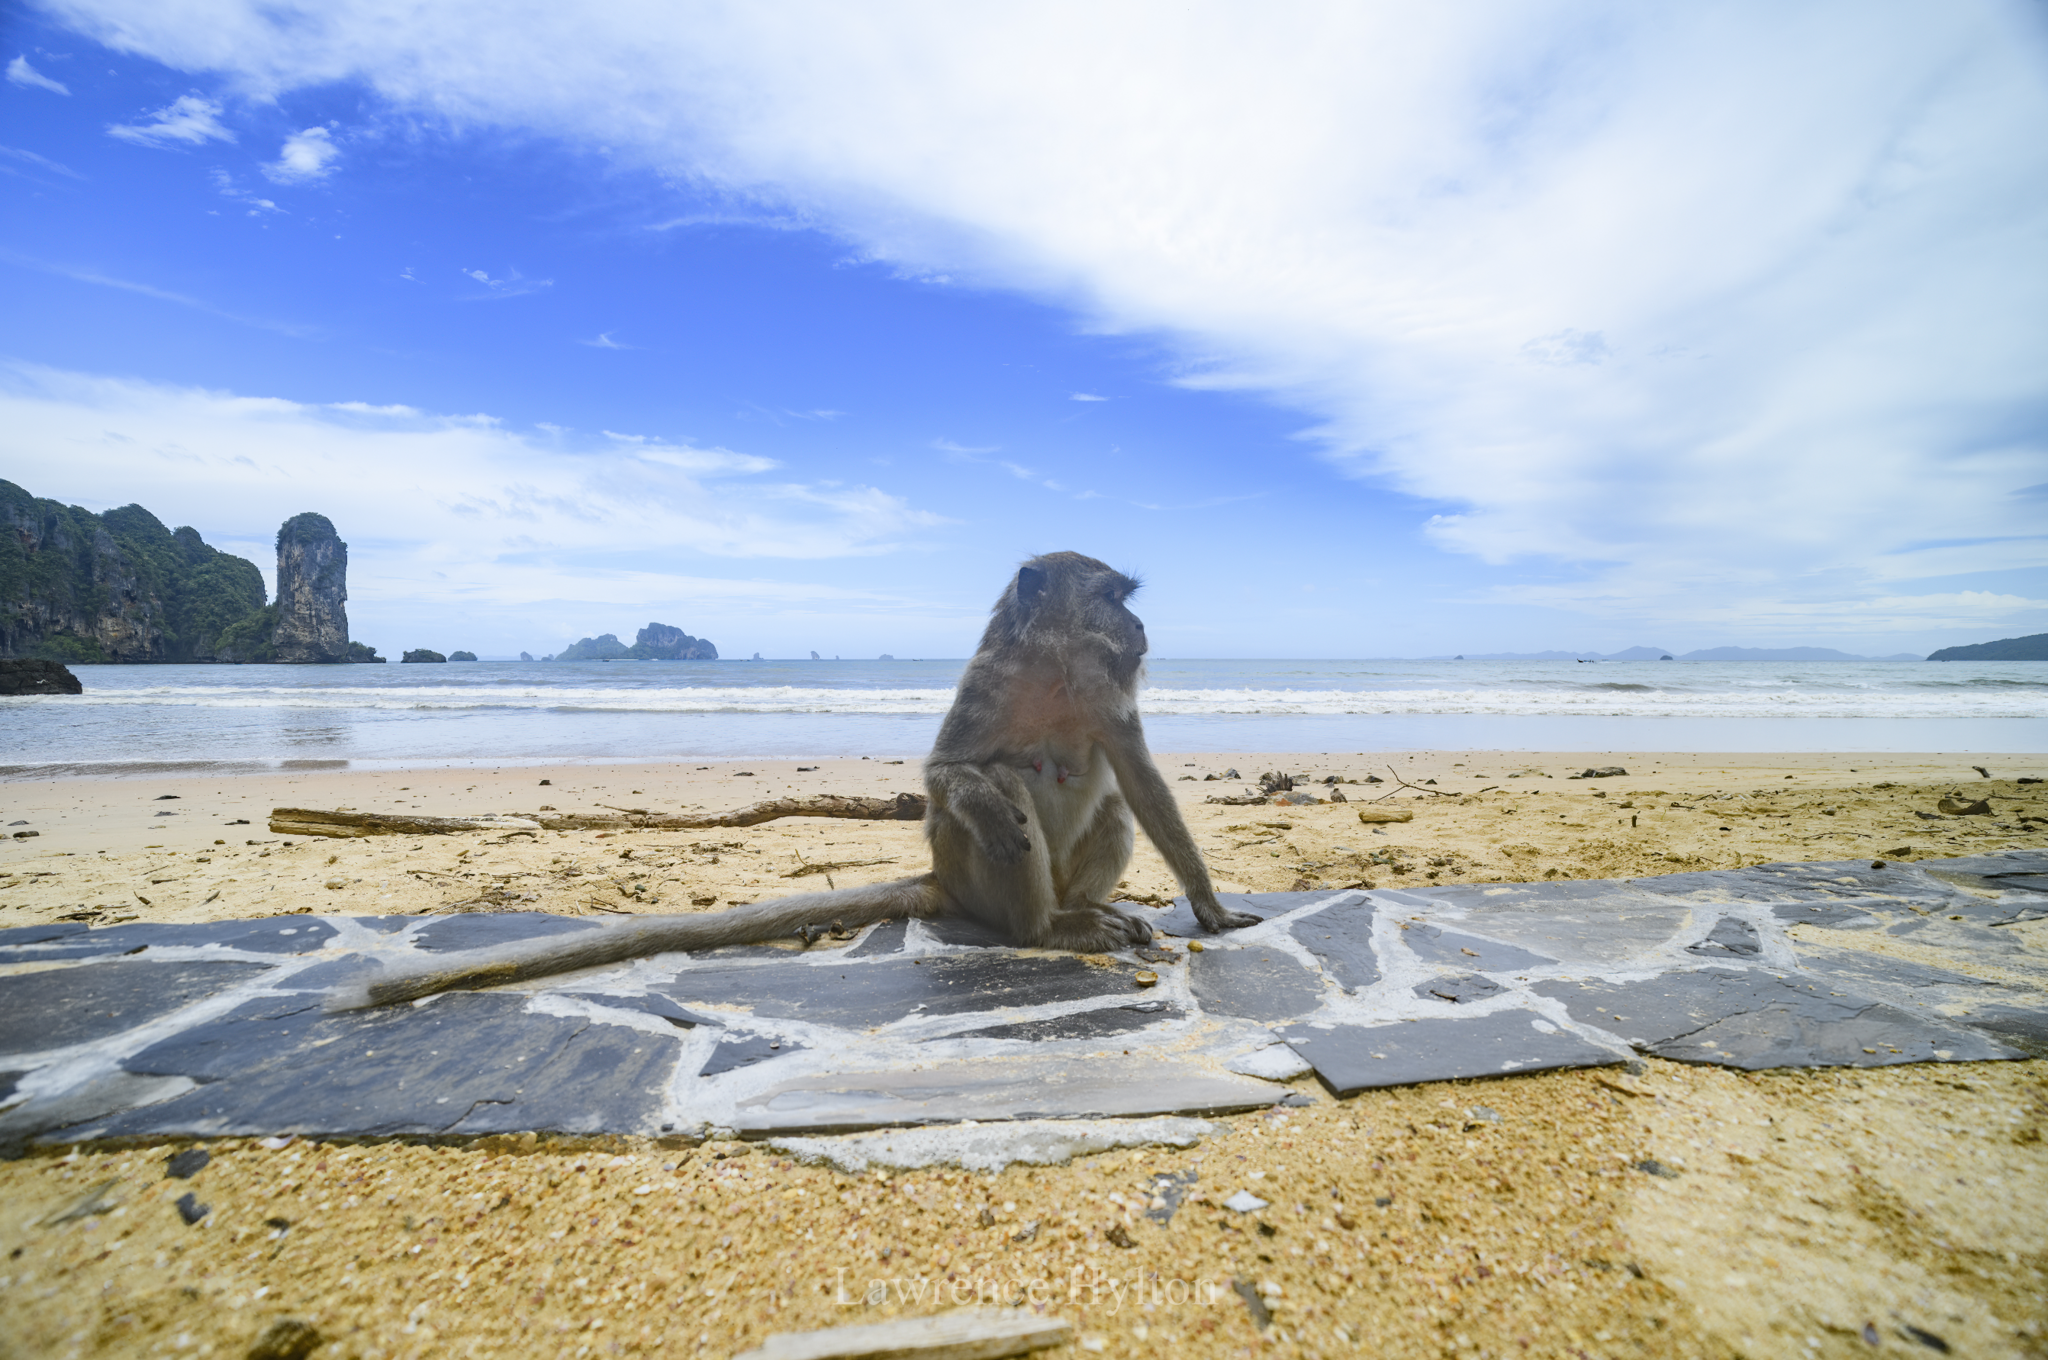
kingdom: Animalia
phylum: Chordata
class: Mammalia
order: Primates
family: Cercopithecidae
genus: Macaca
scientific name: Macaca fascicularis
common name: Crab-eating macaque
